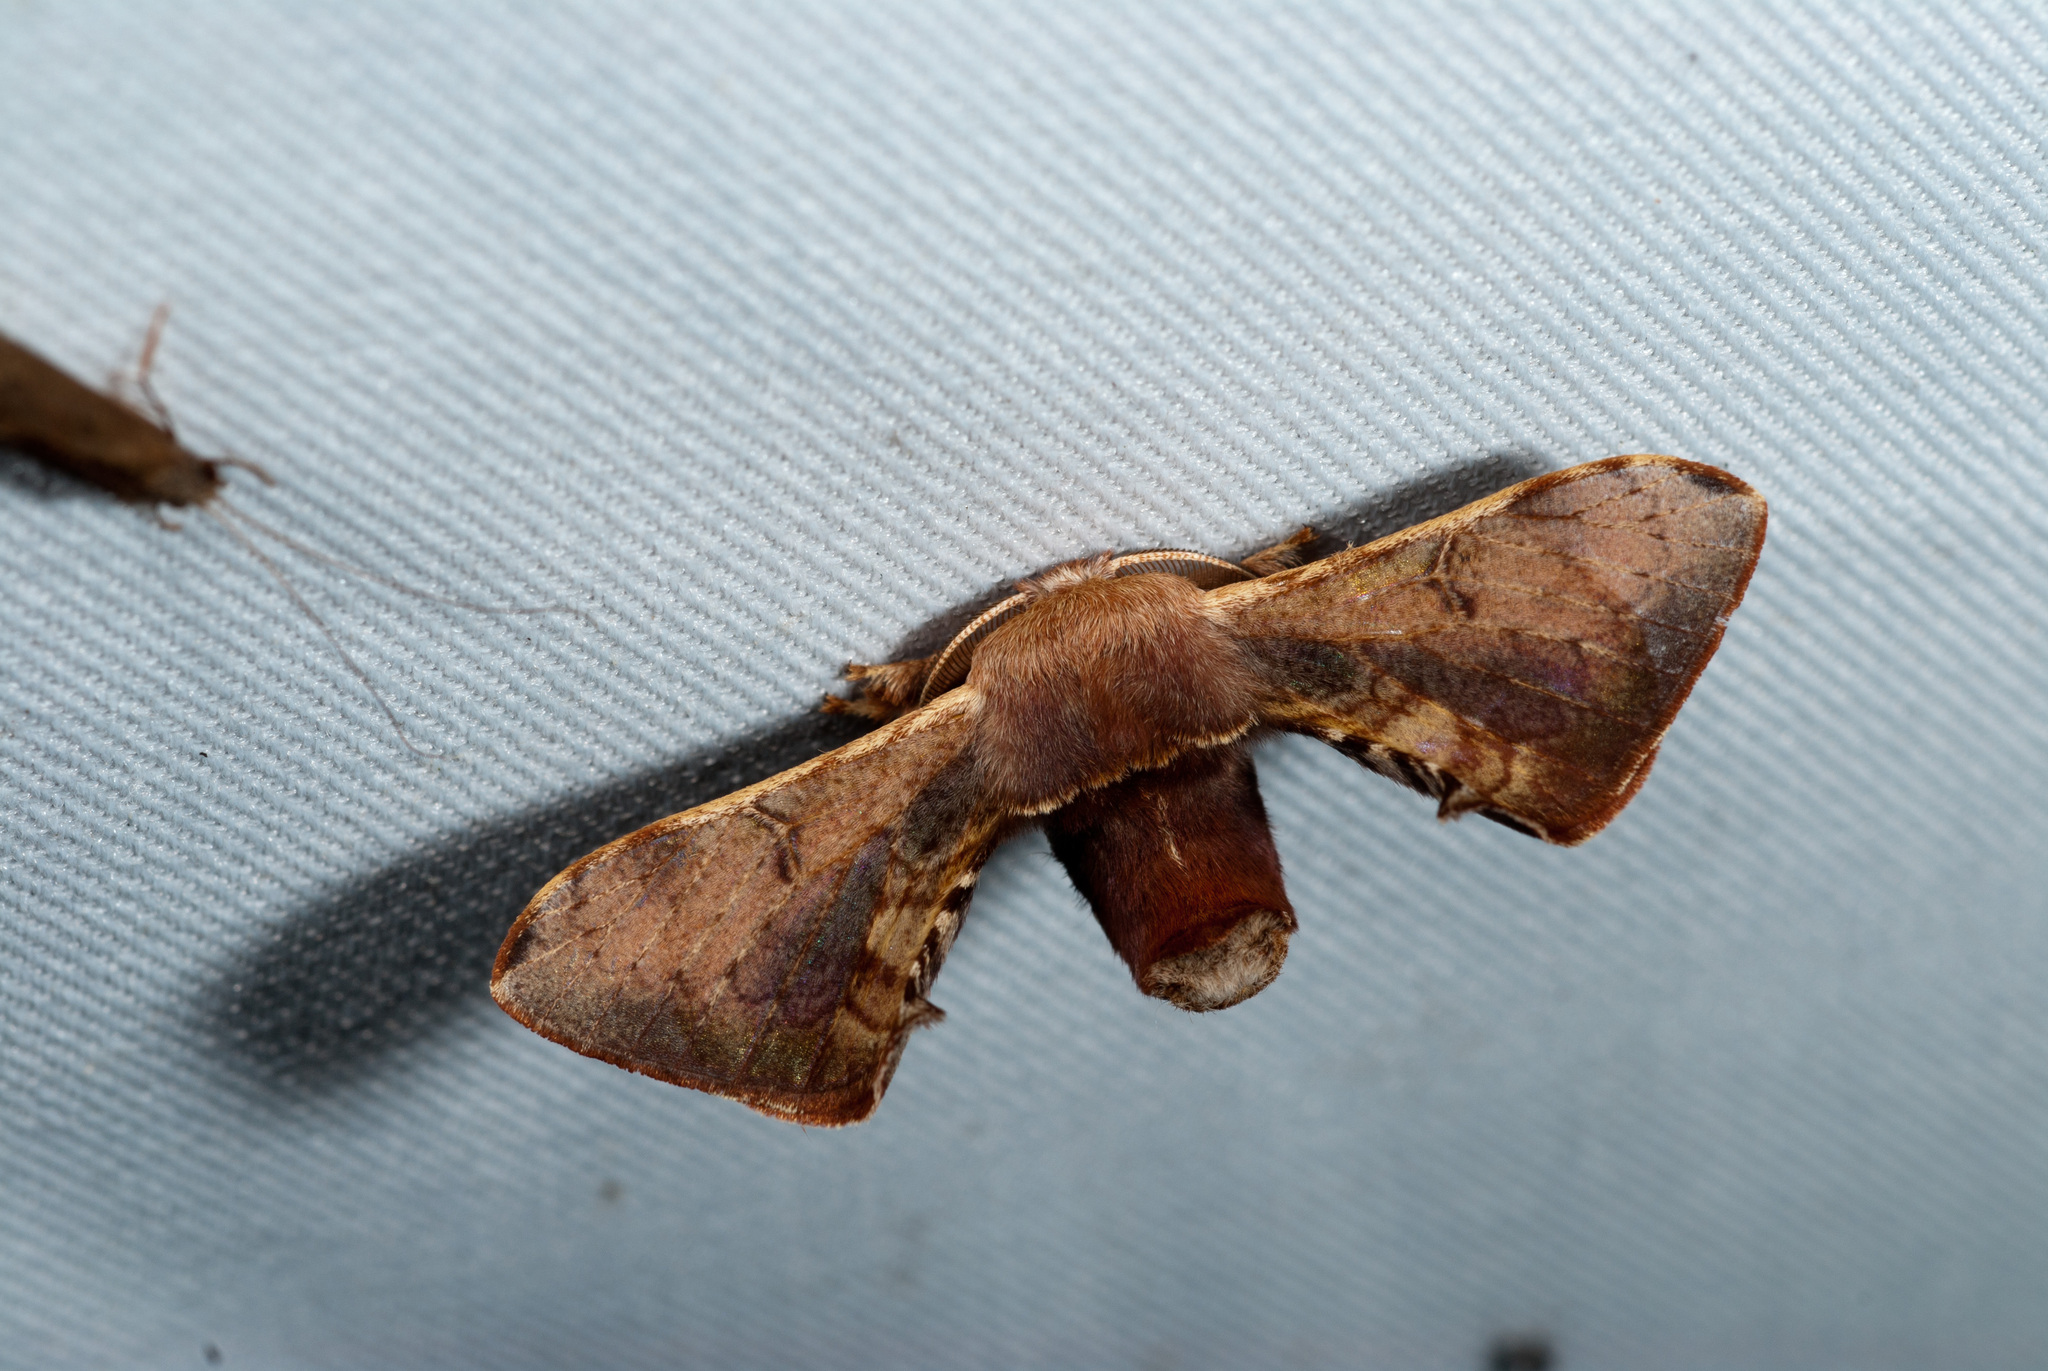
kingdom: Animalia
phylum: Arthropoda
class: Insecta
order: Lepidoptera
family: Bombycidae
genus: Triuncina
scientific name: Triuncina brunnea
